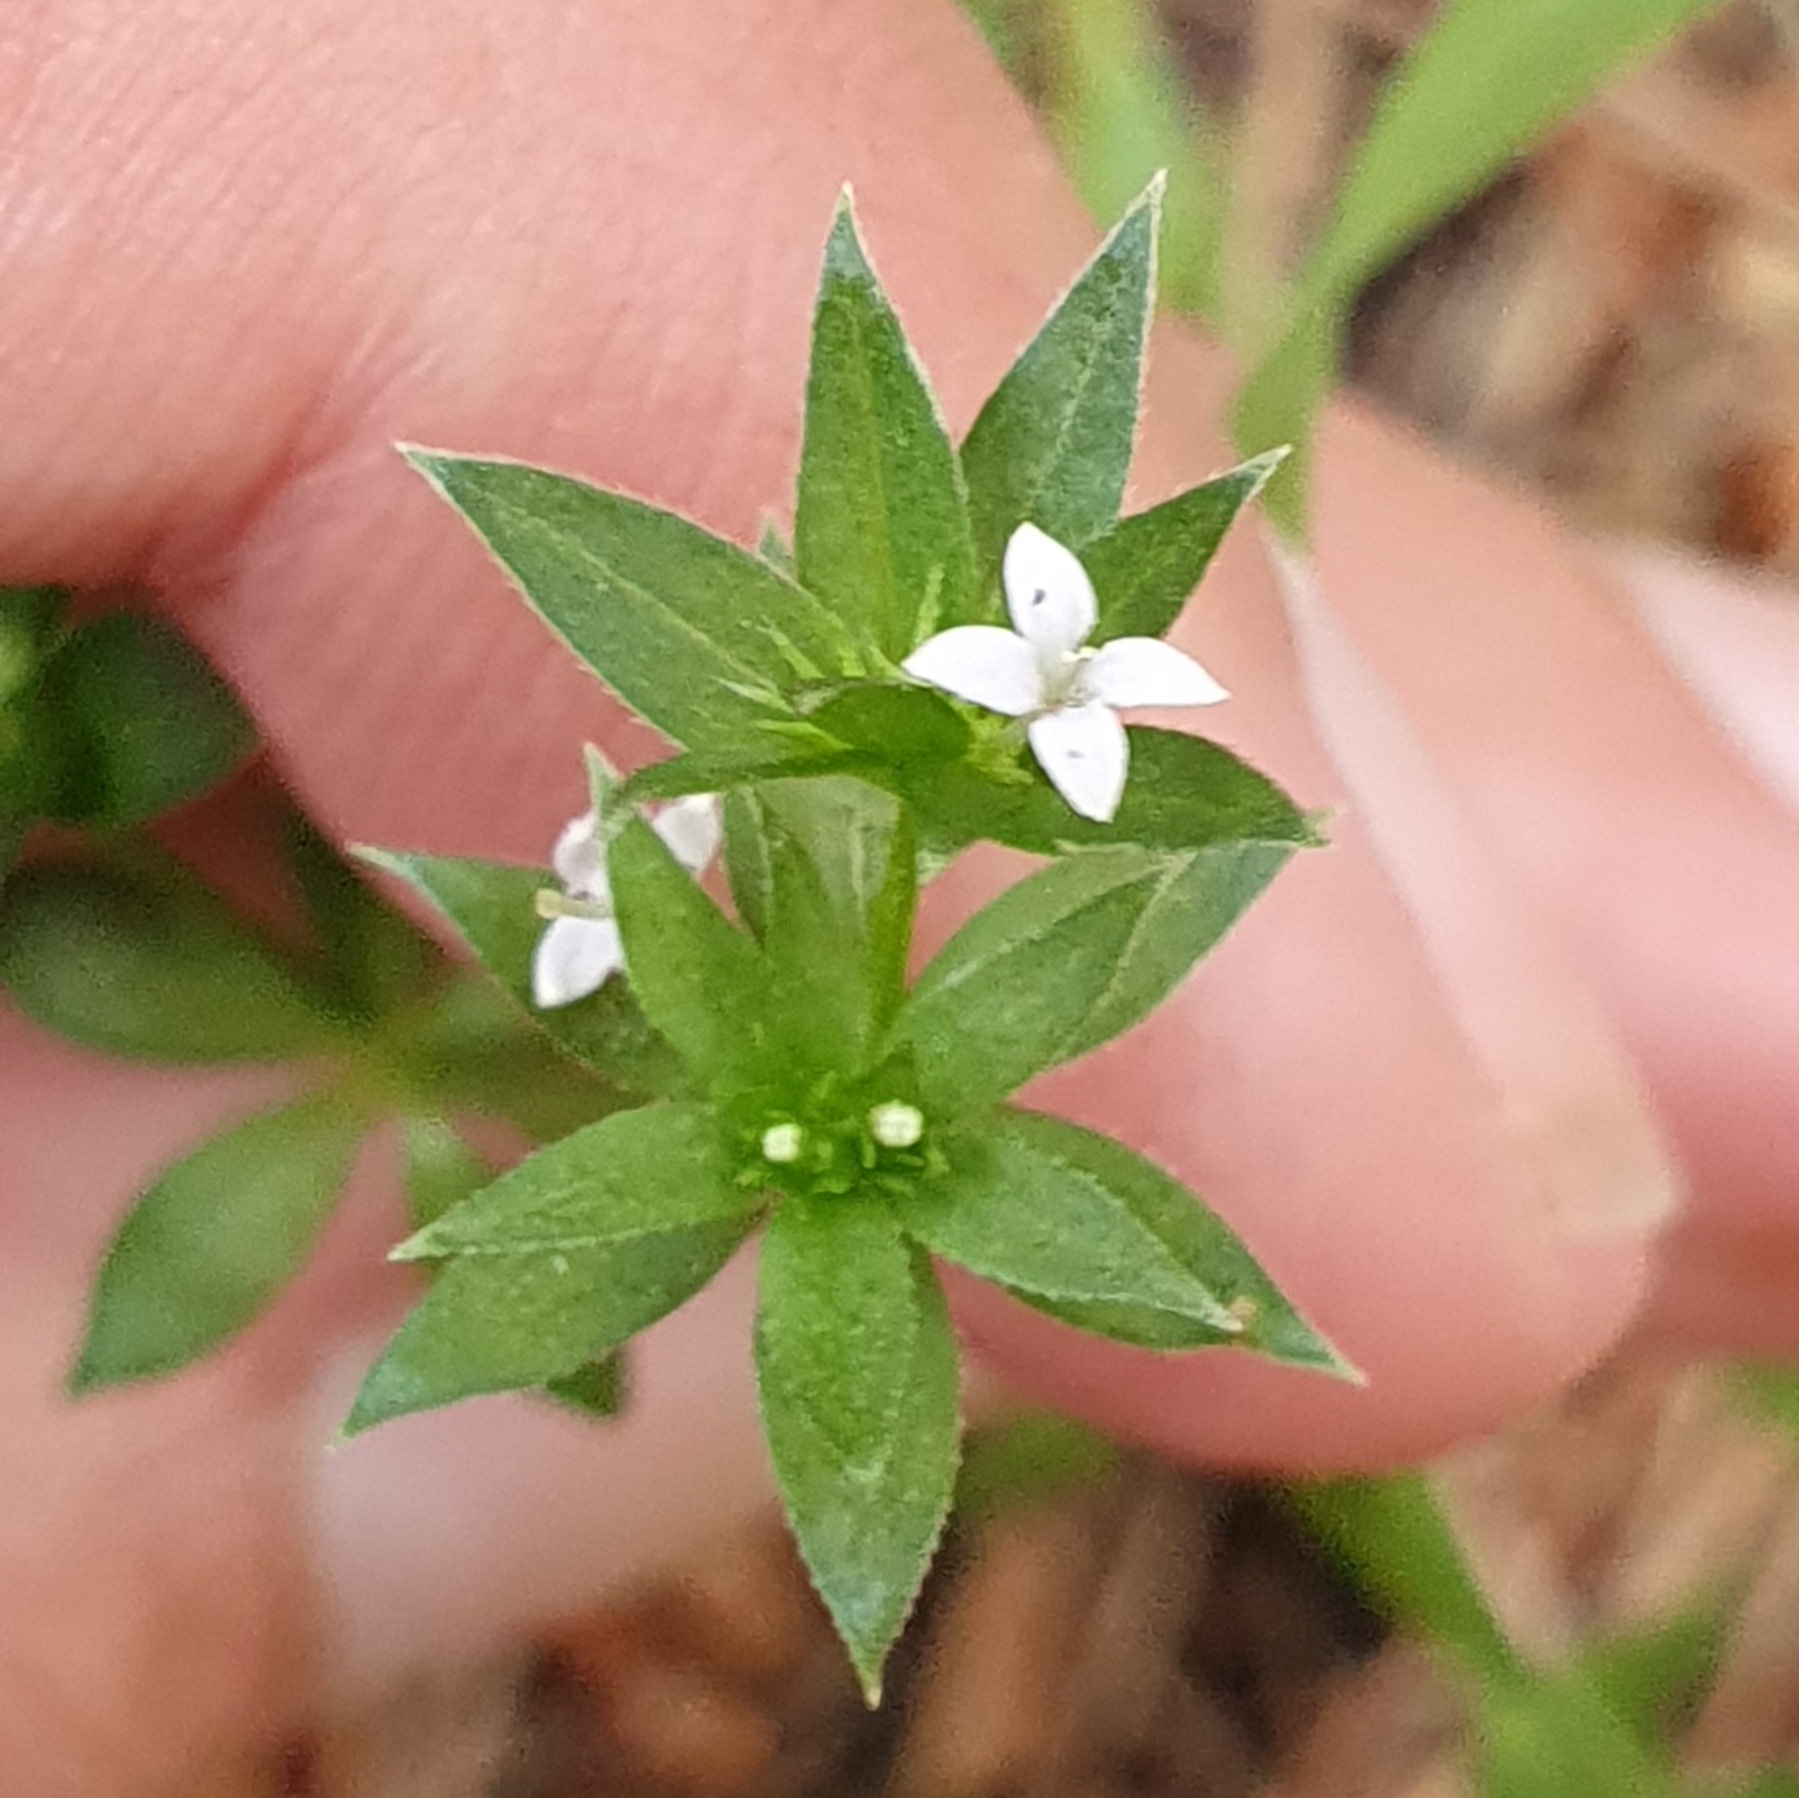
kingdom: Plantae
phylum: Tracheophyta
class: Magnoliopsida
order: Gentianales
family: Rubiaceae
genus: Sherardia
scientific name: Sherardia arvensis
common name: Field madder
